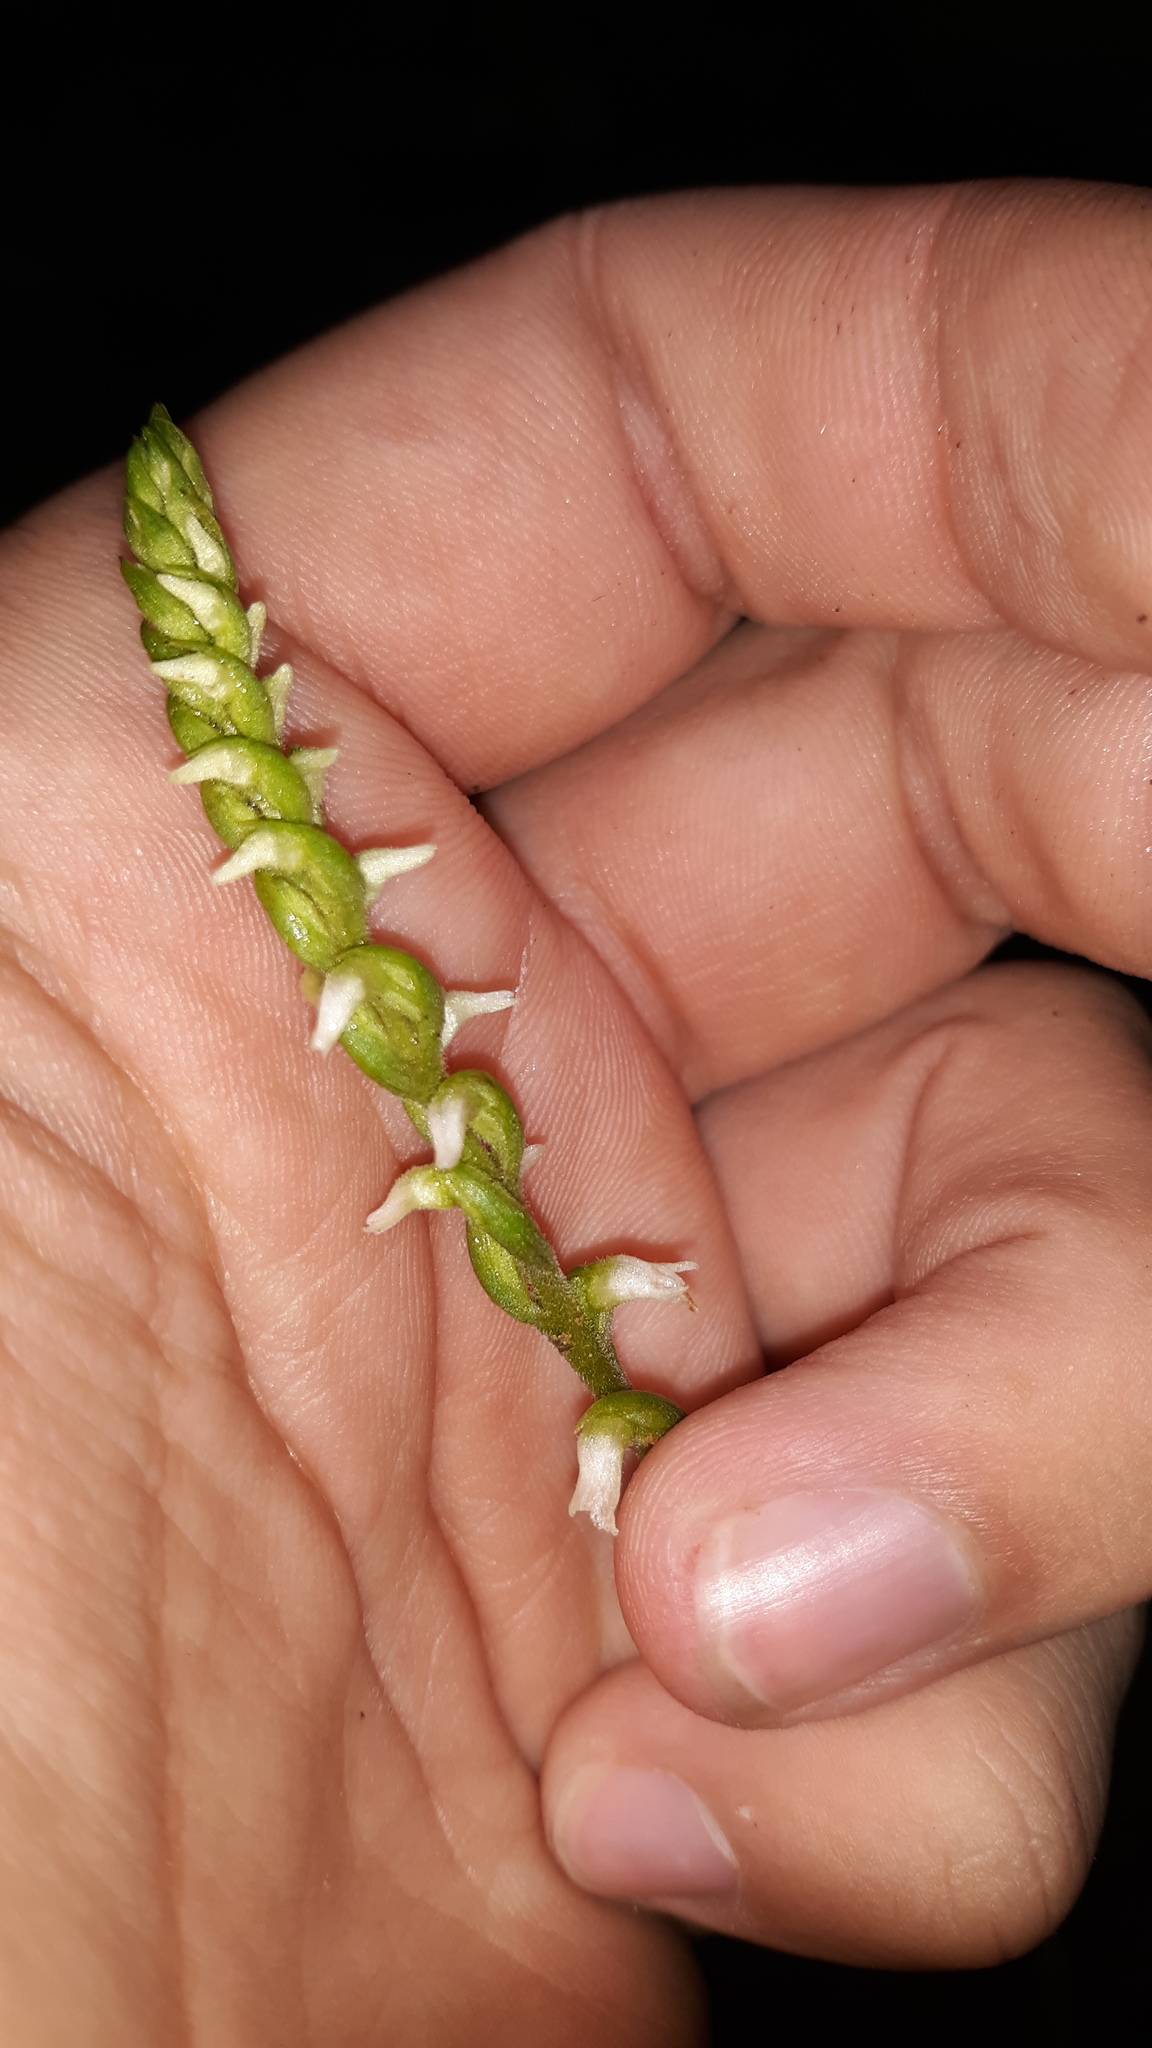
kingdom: Plantae
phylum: Tracheophyta
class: Liliopsida
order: Asparagales
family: Orchidaceae
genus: Spiranthes
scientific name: Spiranthes ovalis
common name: October ladies'-tresses
